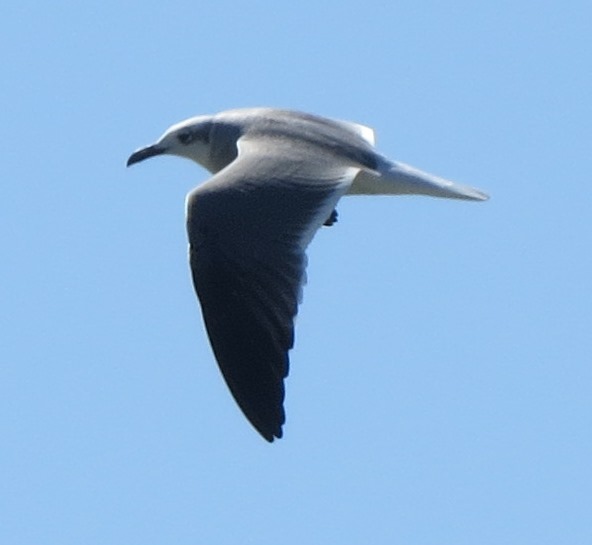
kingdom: Animalia
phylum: Chordata
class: Aves
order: Charadriiformes
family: Laridae
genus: Leucophaeus
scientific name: Leucophaeus atricilla
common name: Laughing gull
